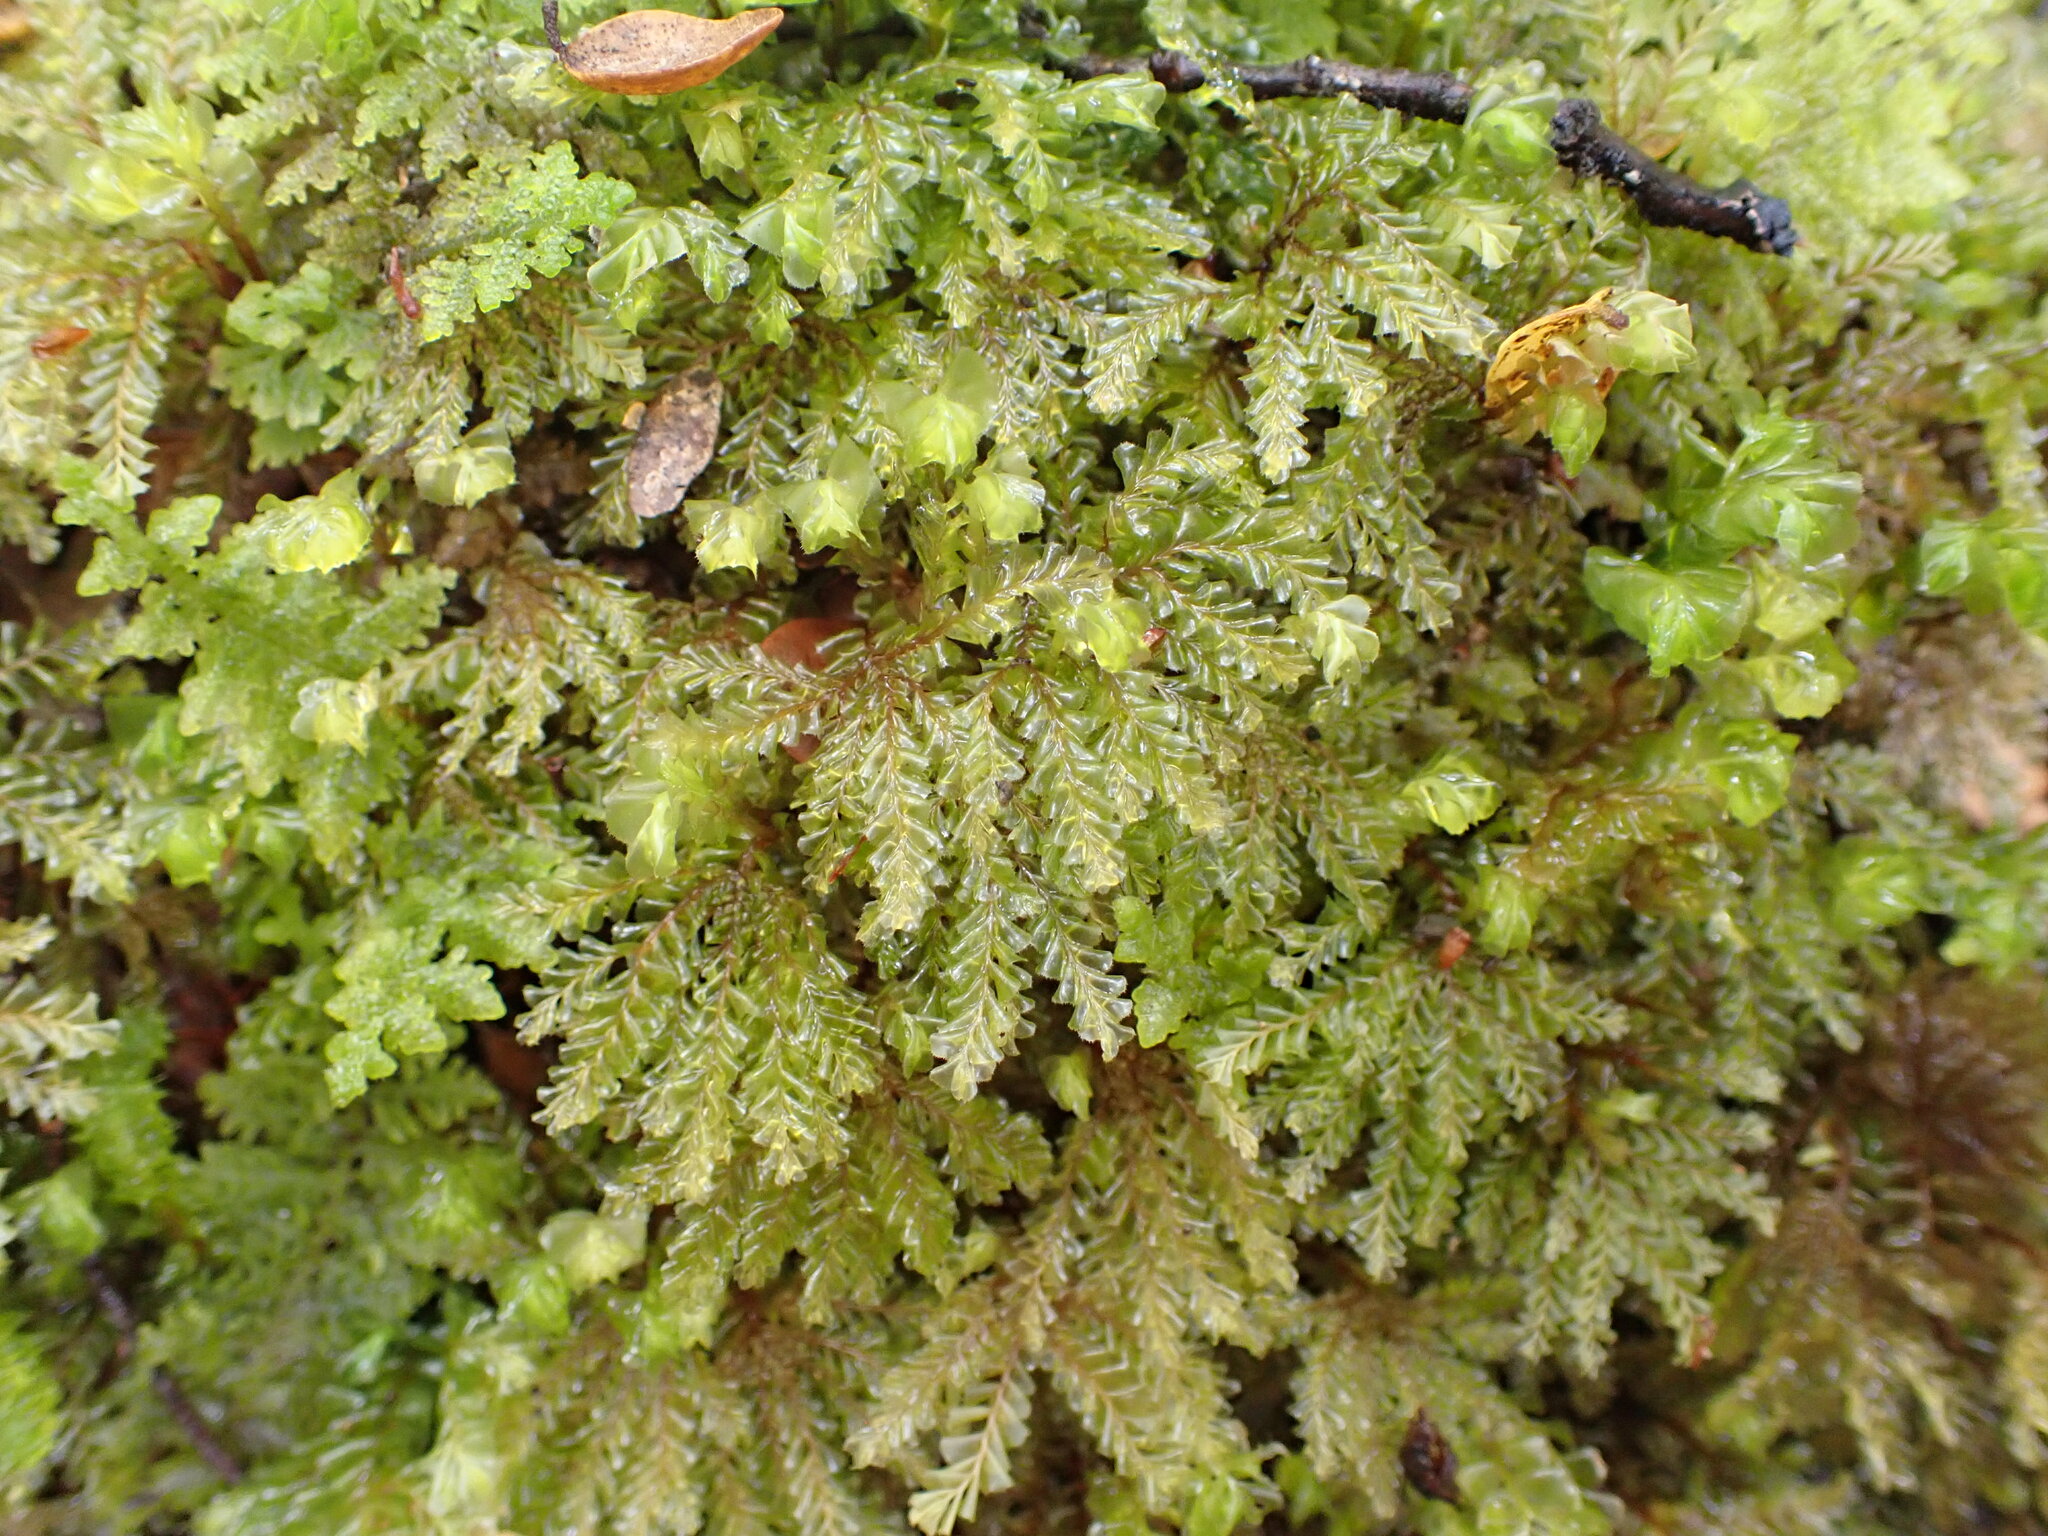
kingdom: Plantae
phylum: Marchantiophyta
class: Jungermanniopsida
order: Jungermanniales
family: Plagiochilaceae
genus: Plagiochila
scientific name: Plagiochila gigantea
